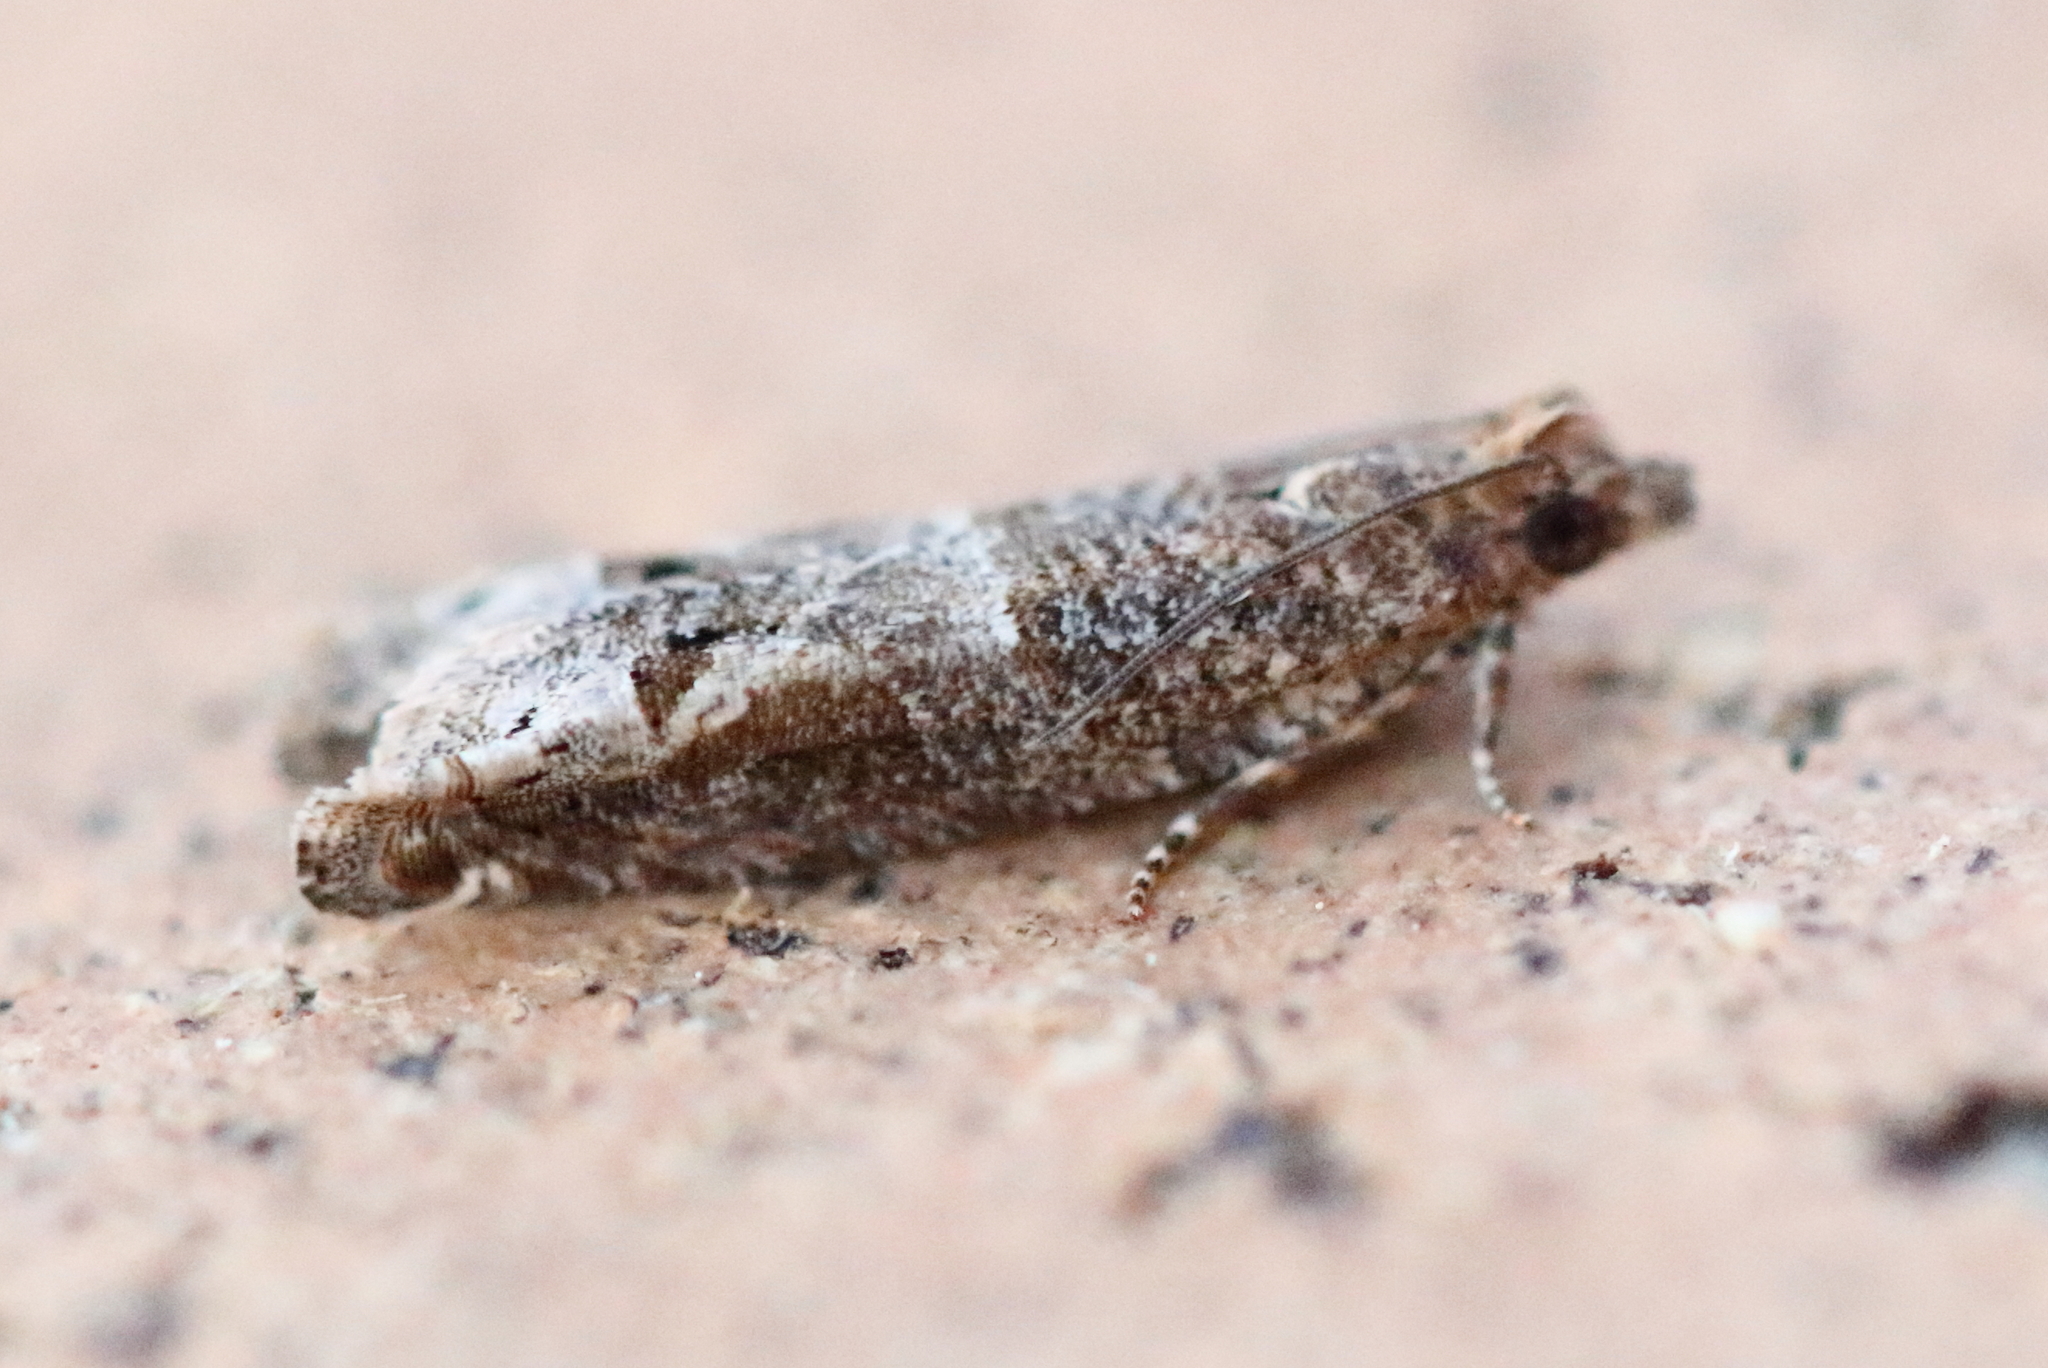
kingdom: Animalia
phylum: Arthropoda
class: Insecta
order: Lepidoptera
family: Tortricidae
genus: Crocidosema
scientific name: Crocidosema plebejana
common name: Southern bell
